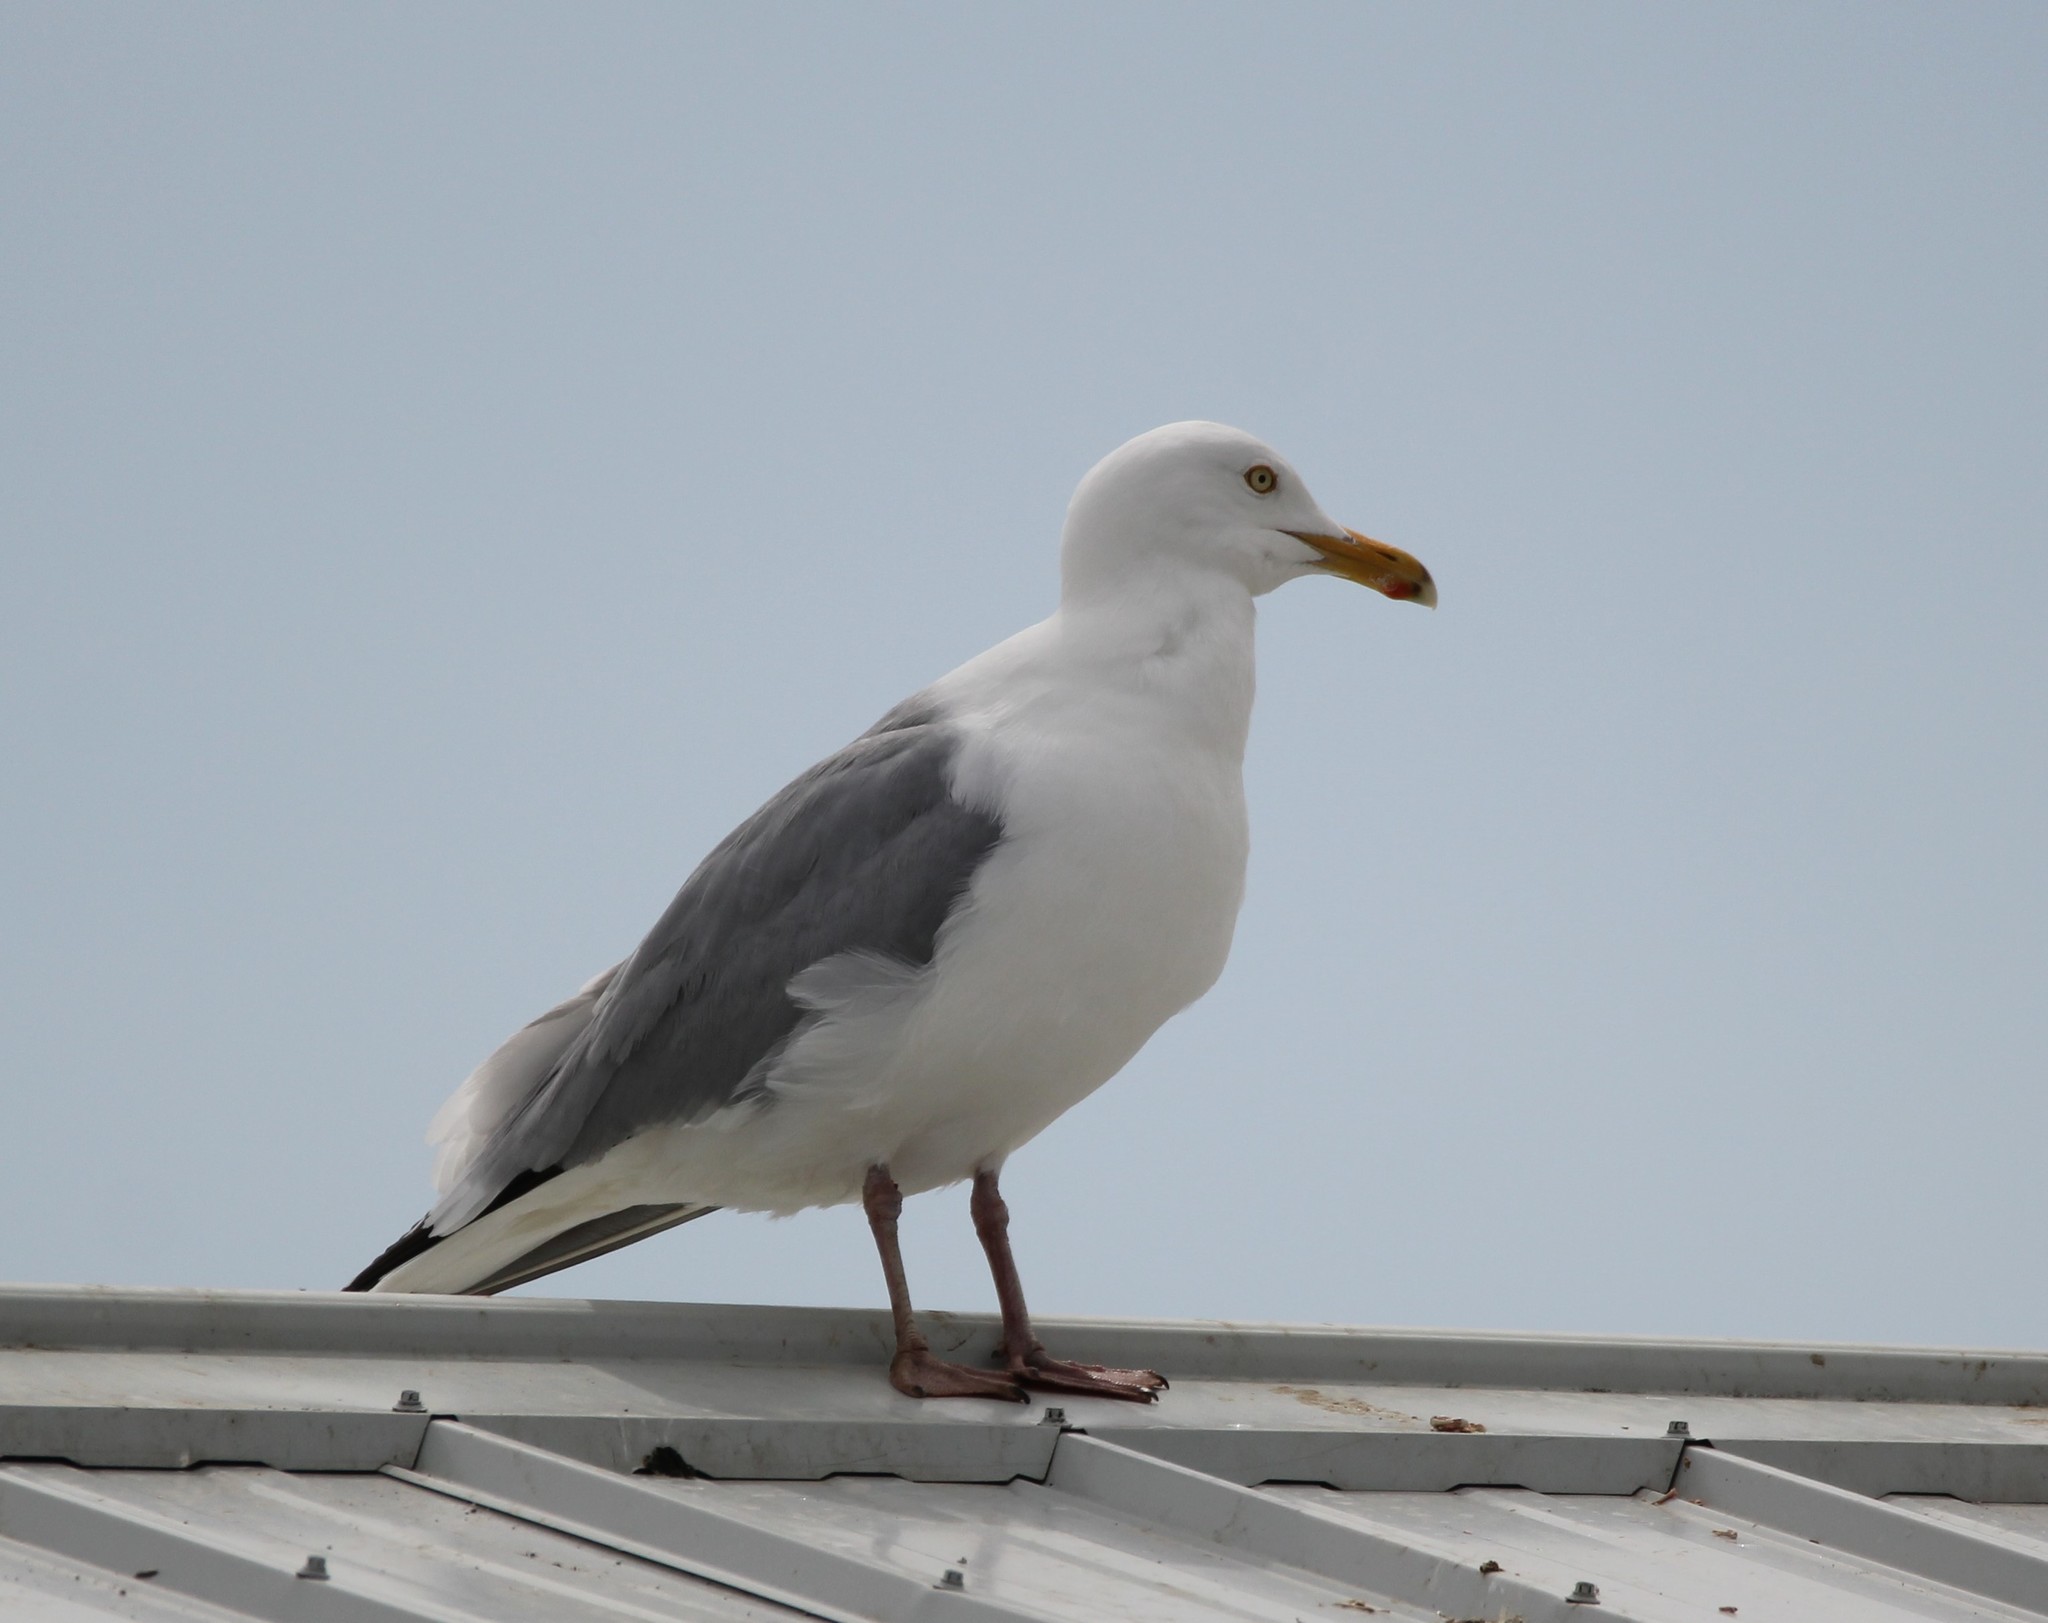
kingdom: Animalia
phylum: Chordata
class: Aves
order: Charadriiformes
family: Laridae
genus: Larus
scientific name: Larus argentatus
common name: Herring gull
